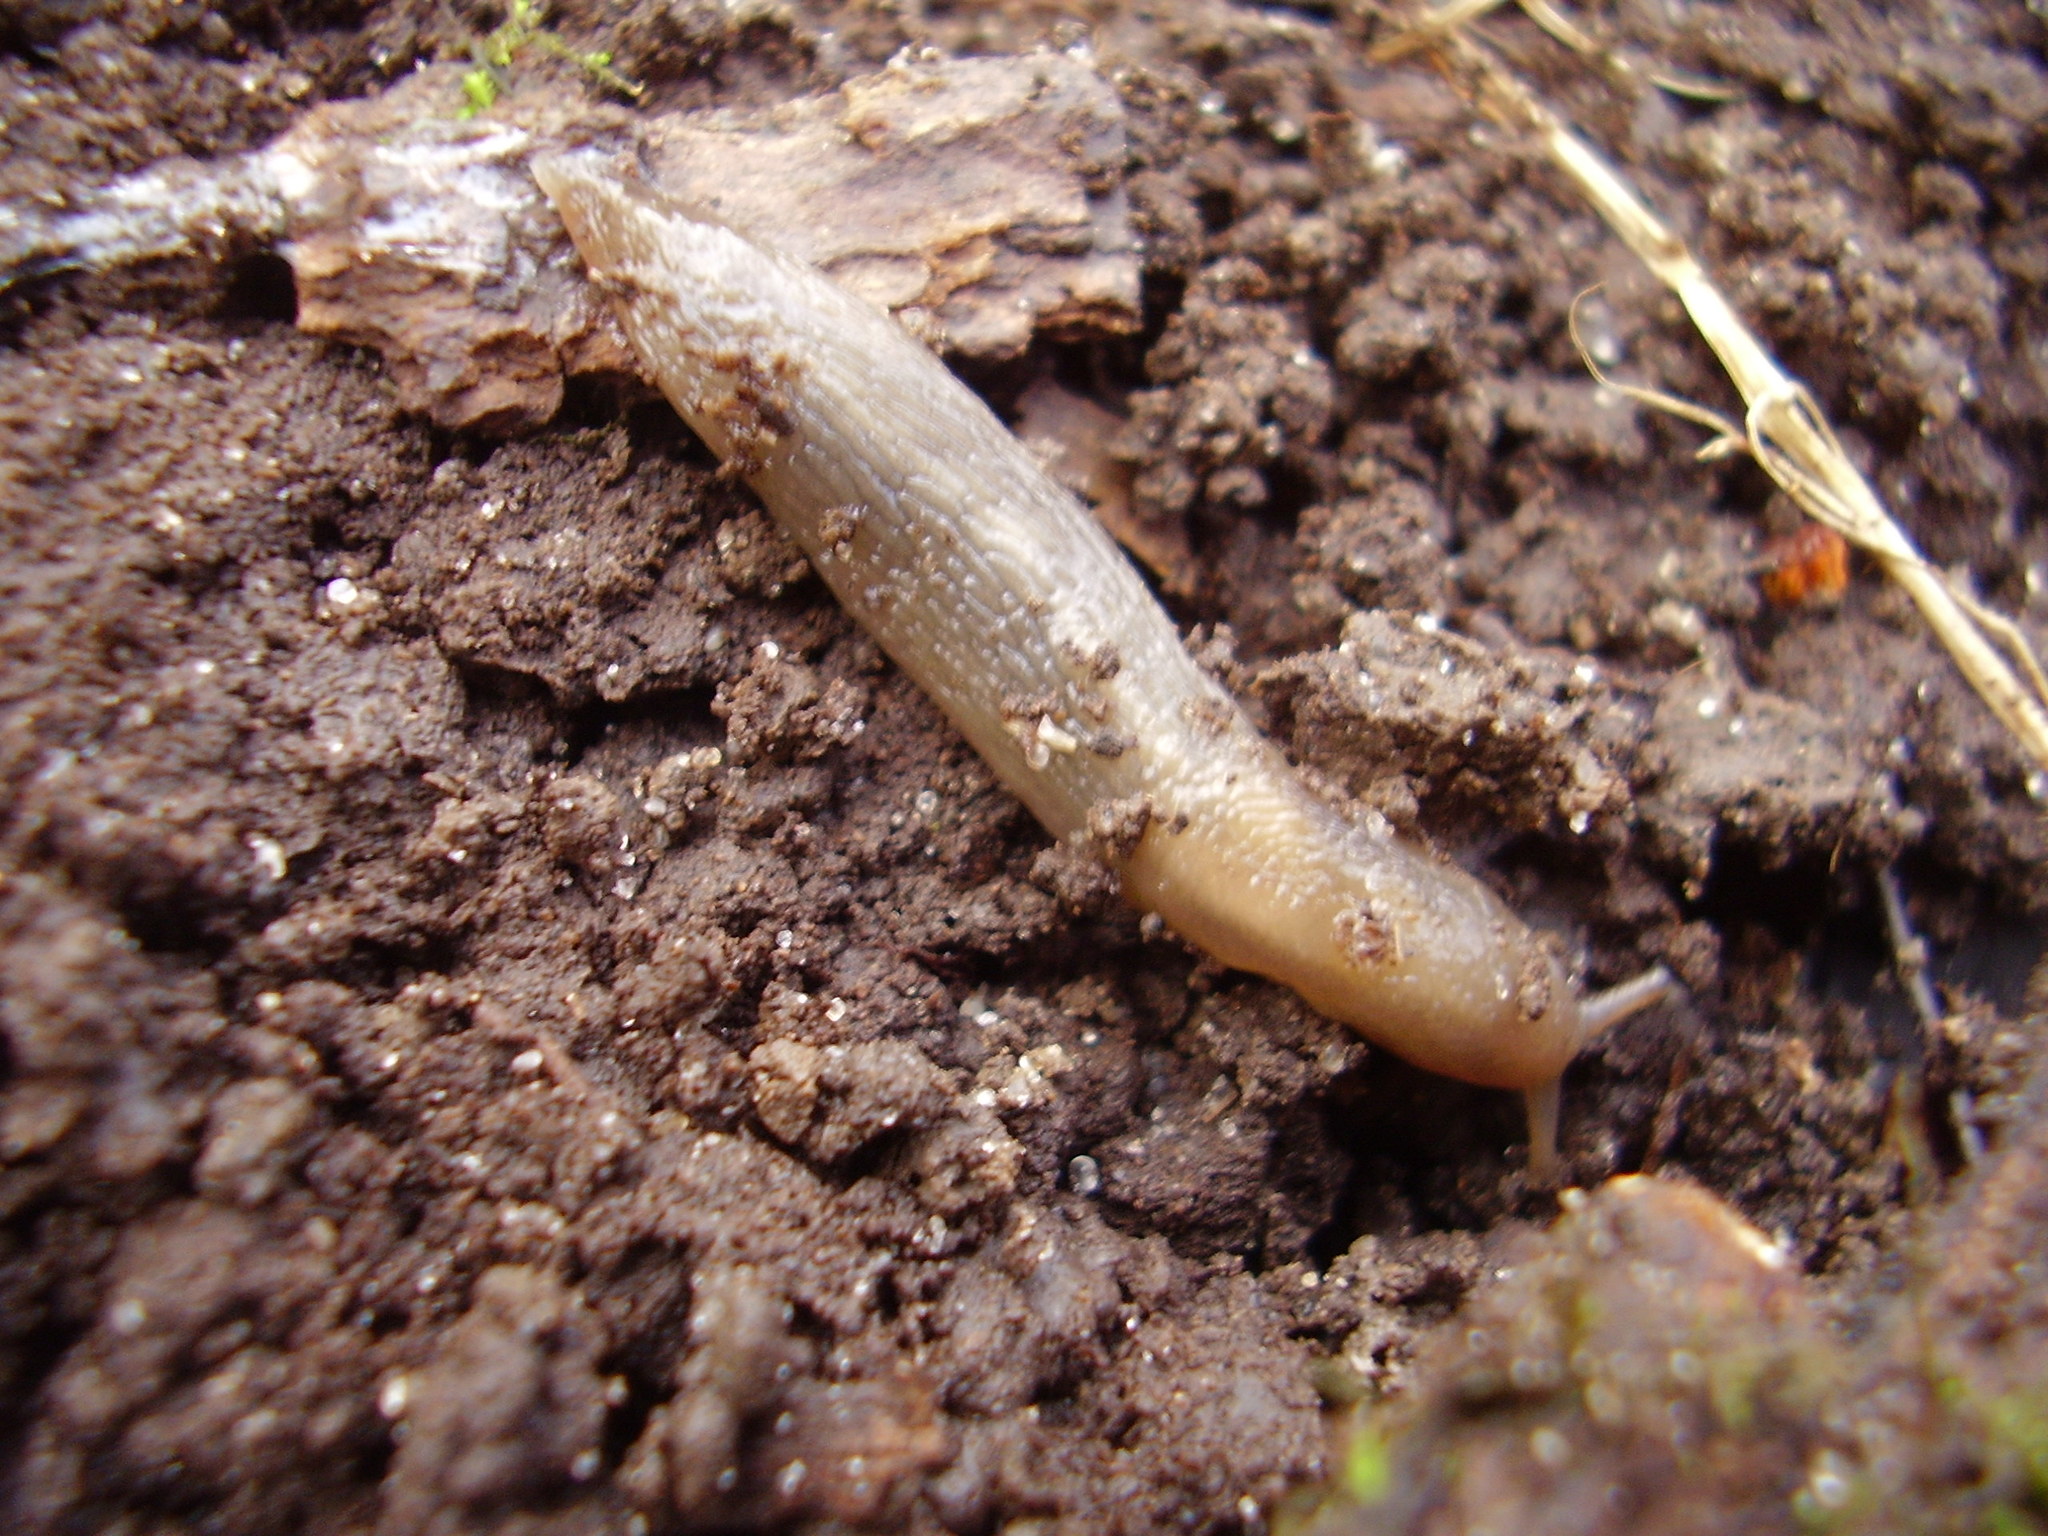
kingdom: Animalia
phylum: Mollusca
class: Gastropoda
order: Stylommatophora
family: Limacidae
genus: Lehmannia
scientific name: Lehmannia marginata
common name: Tree slug
